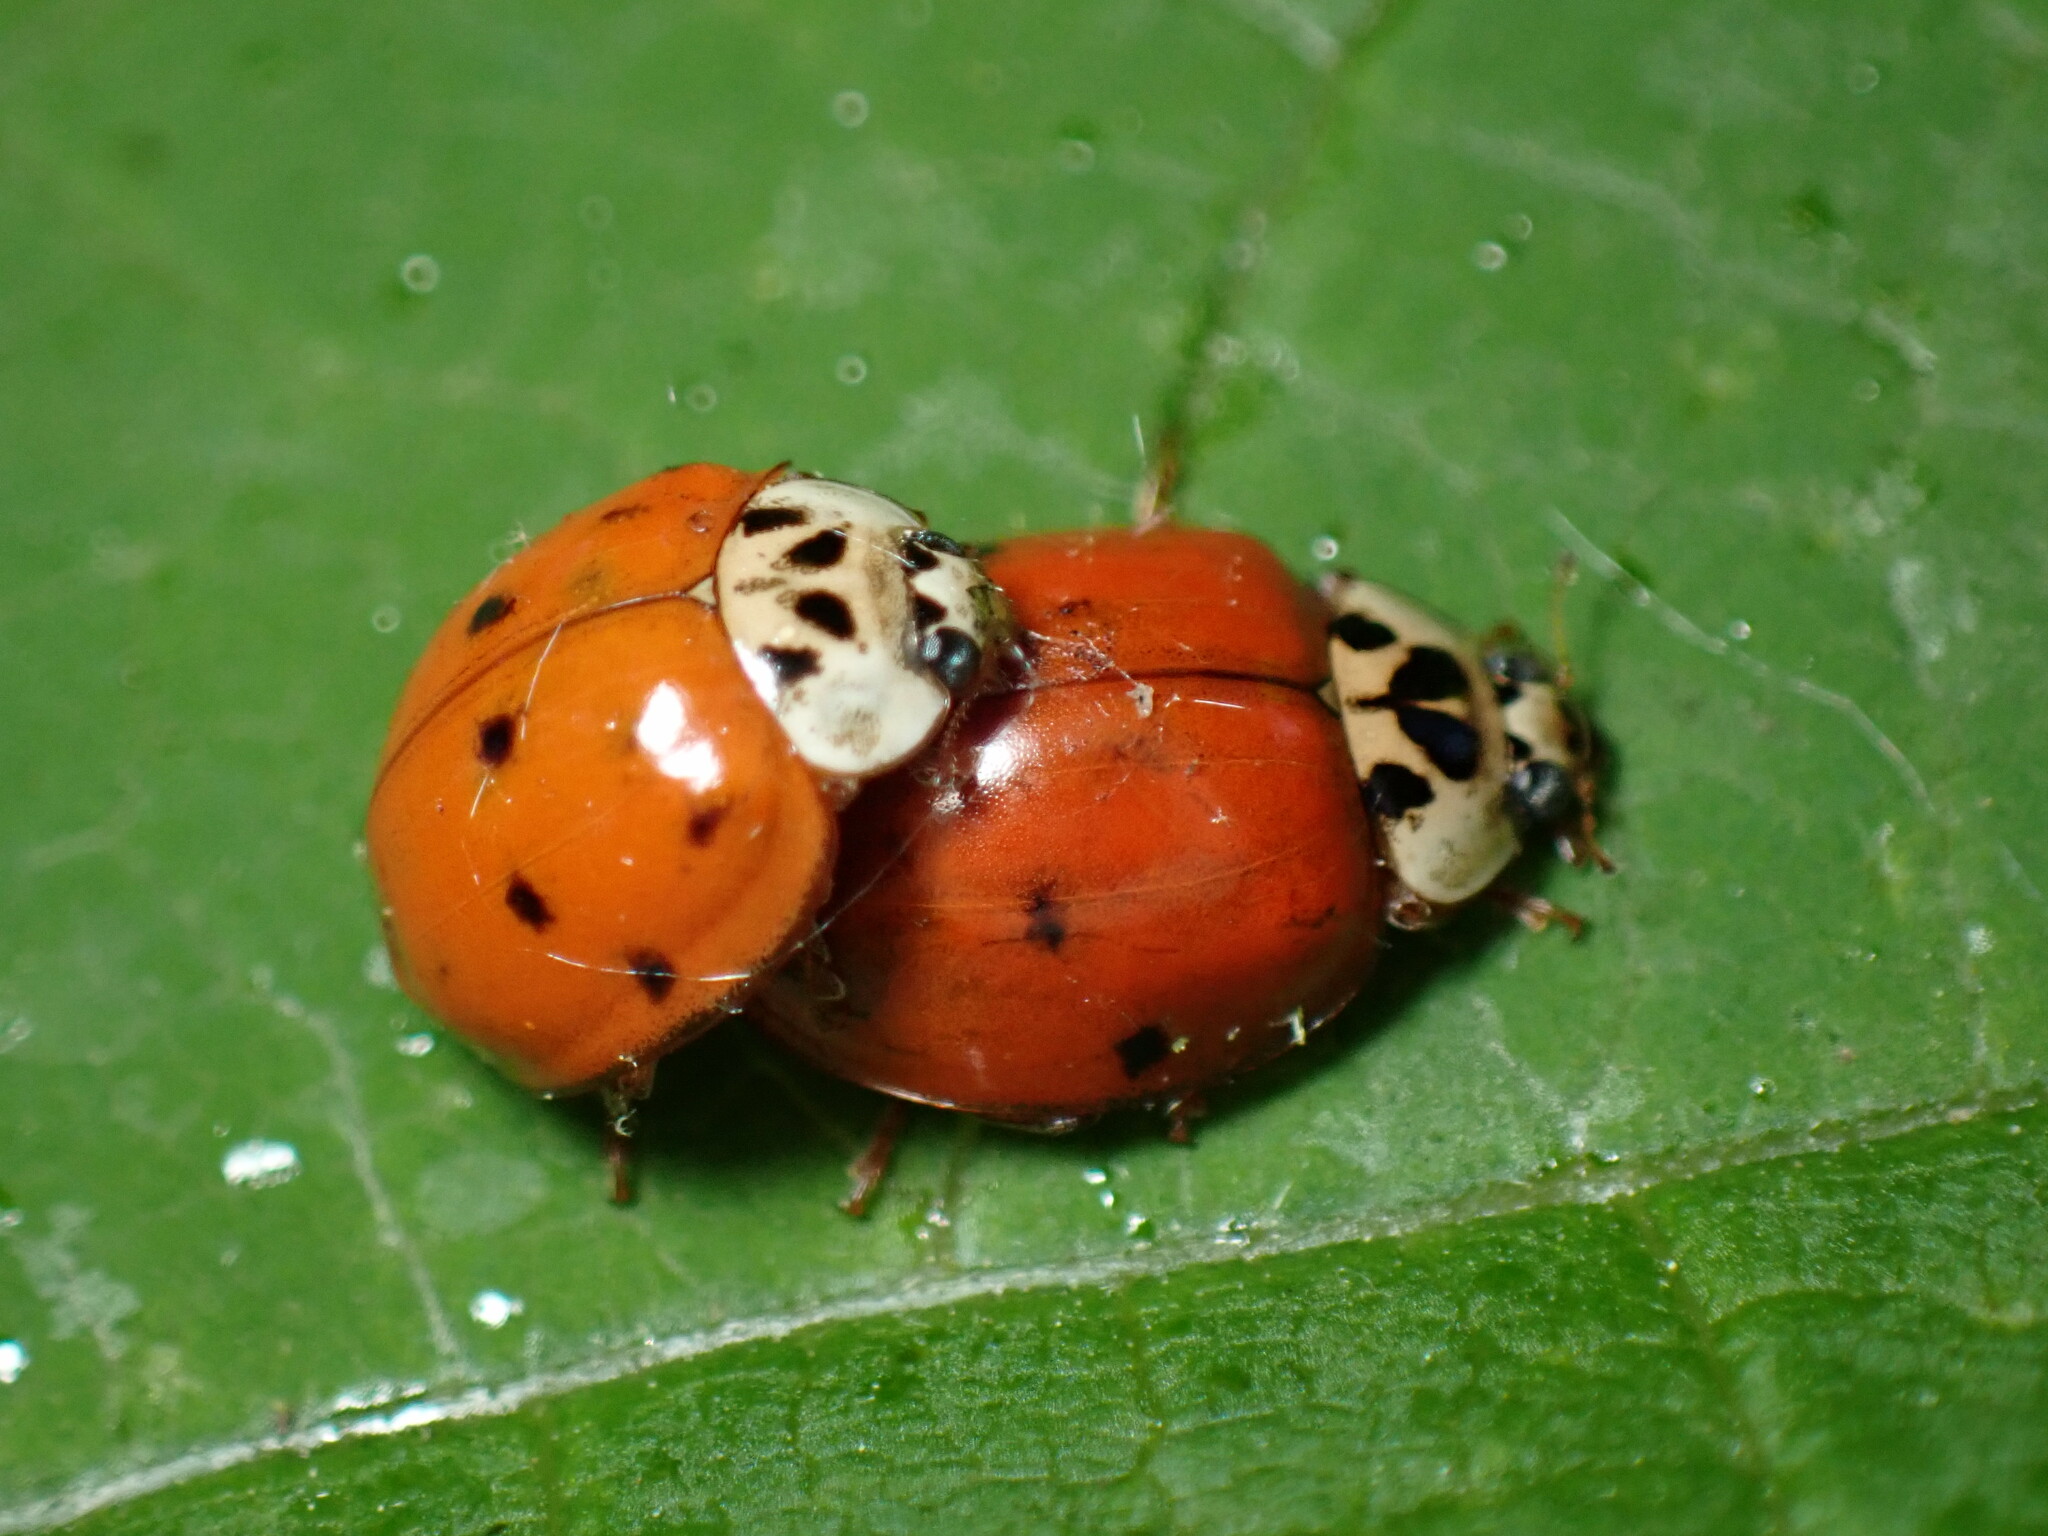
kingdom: Animalia
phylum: Arthropoda
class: Insecta
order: Coleoptera
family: Coccinellidae
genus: Harmonia
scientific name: Harmonia axyridis
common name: Harlequin ladybird
